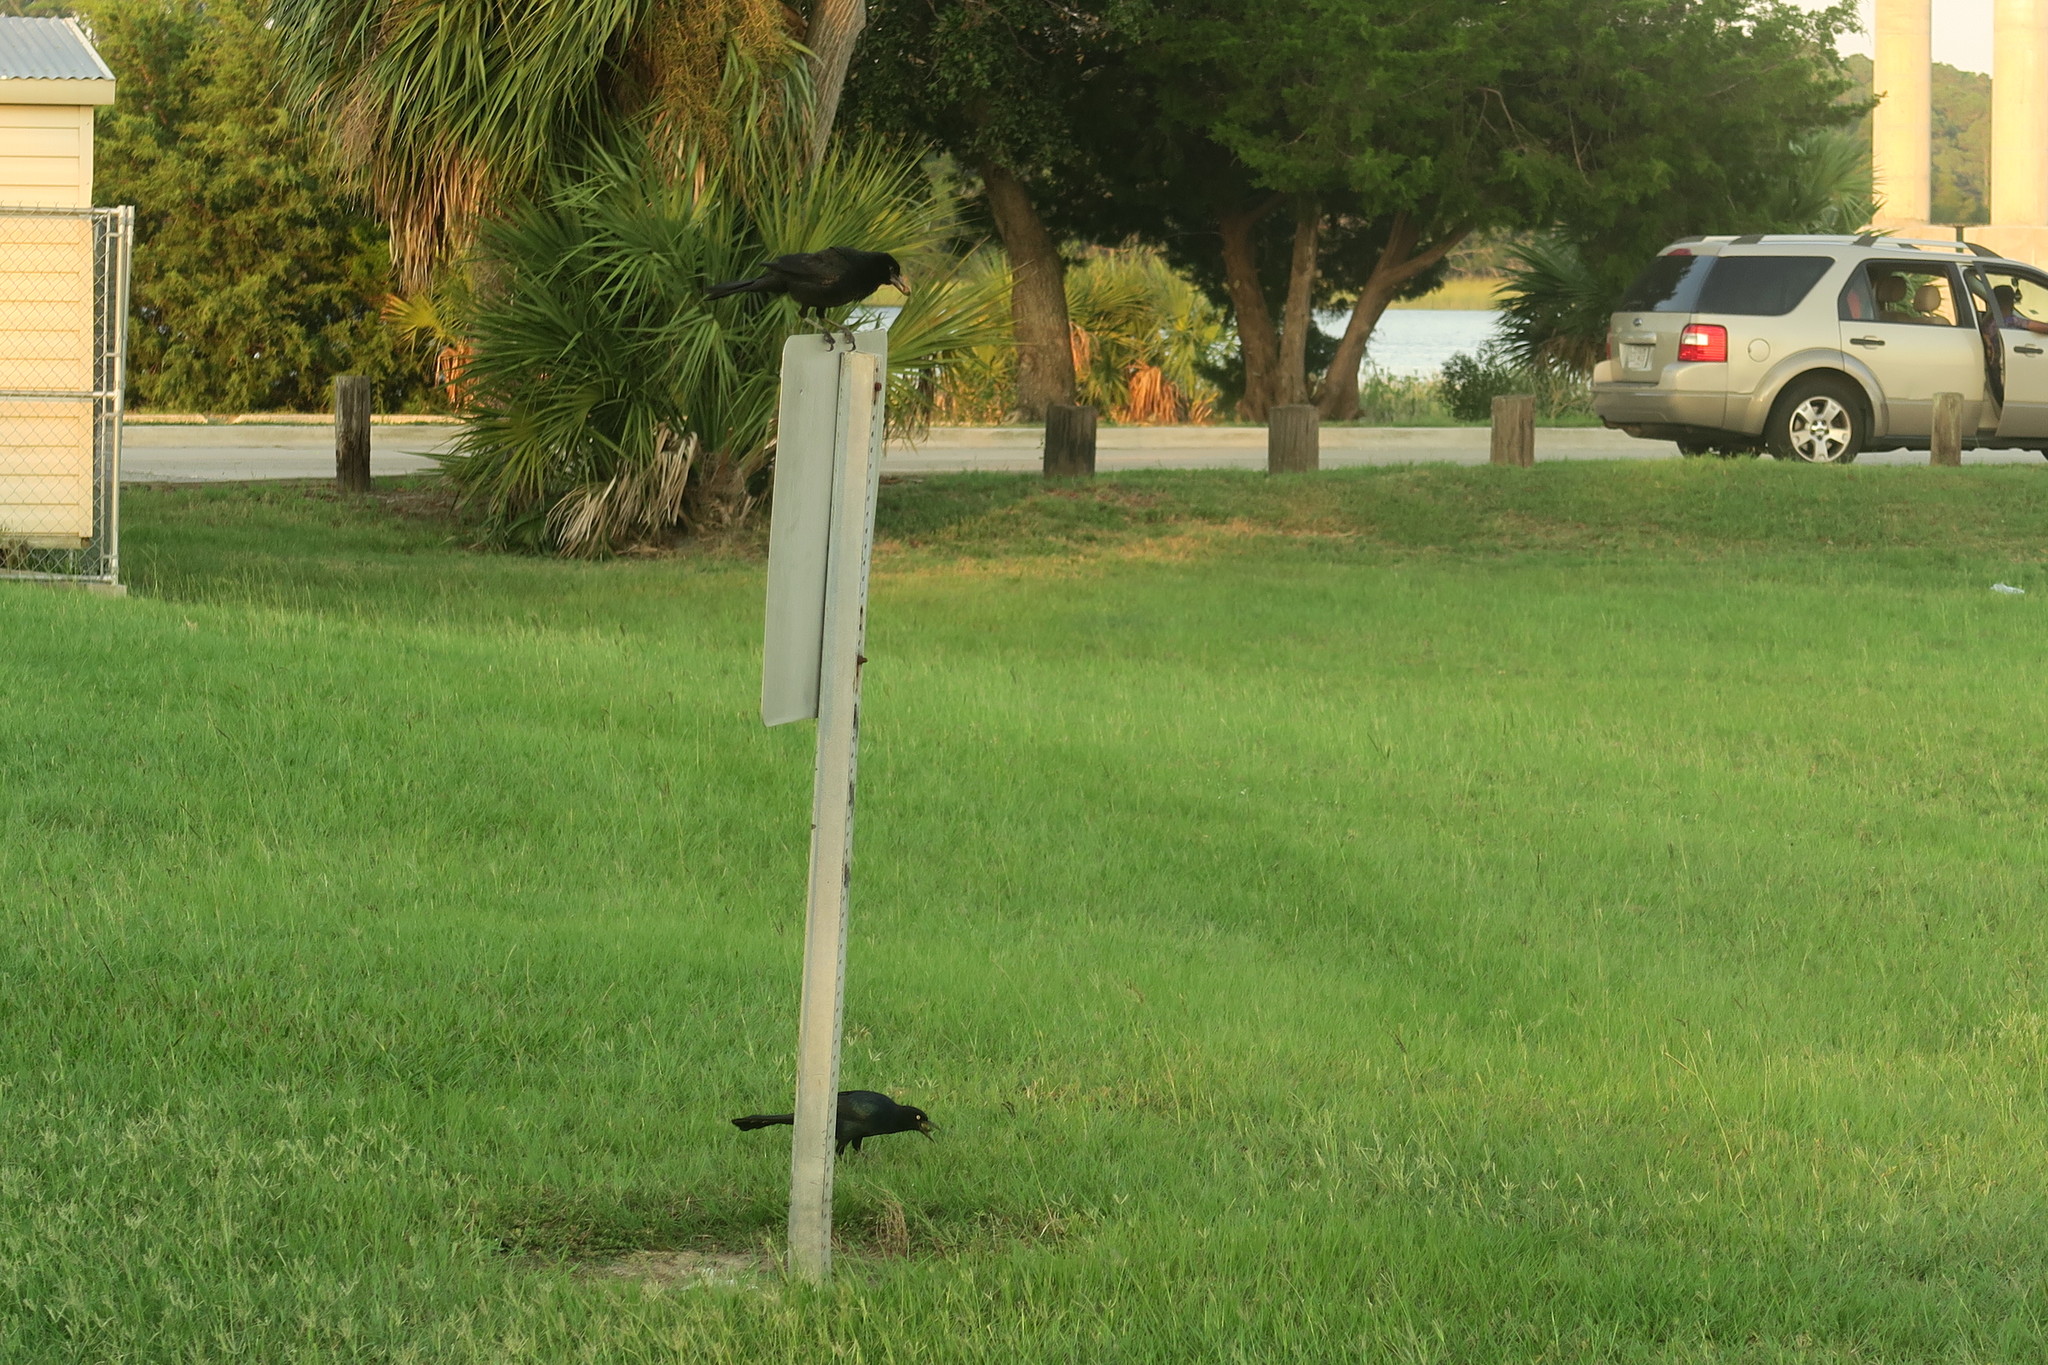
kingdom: Animalia
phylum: Chordata
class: Aves
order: Passeriformes
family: Icteridae
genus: Quiscalus
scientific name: Quiscalus major
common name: Boat-tailed grackle
